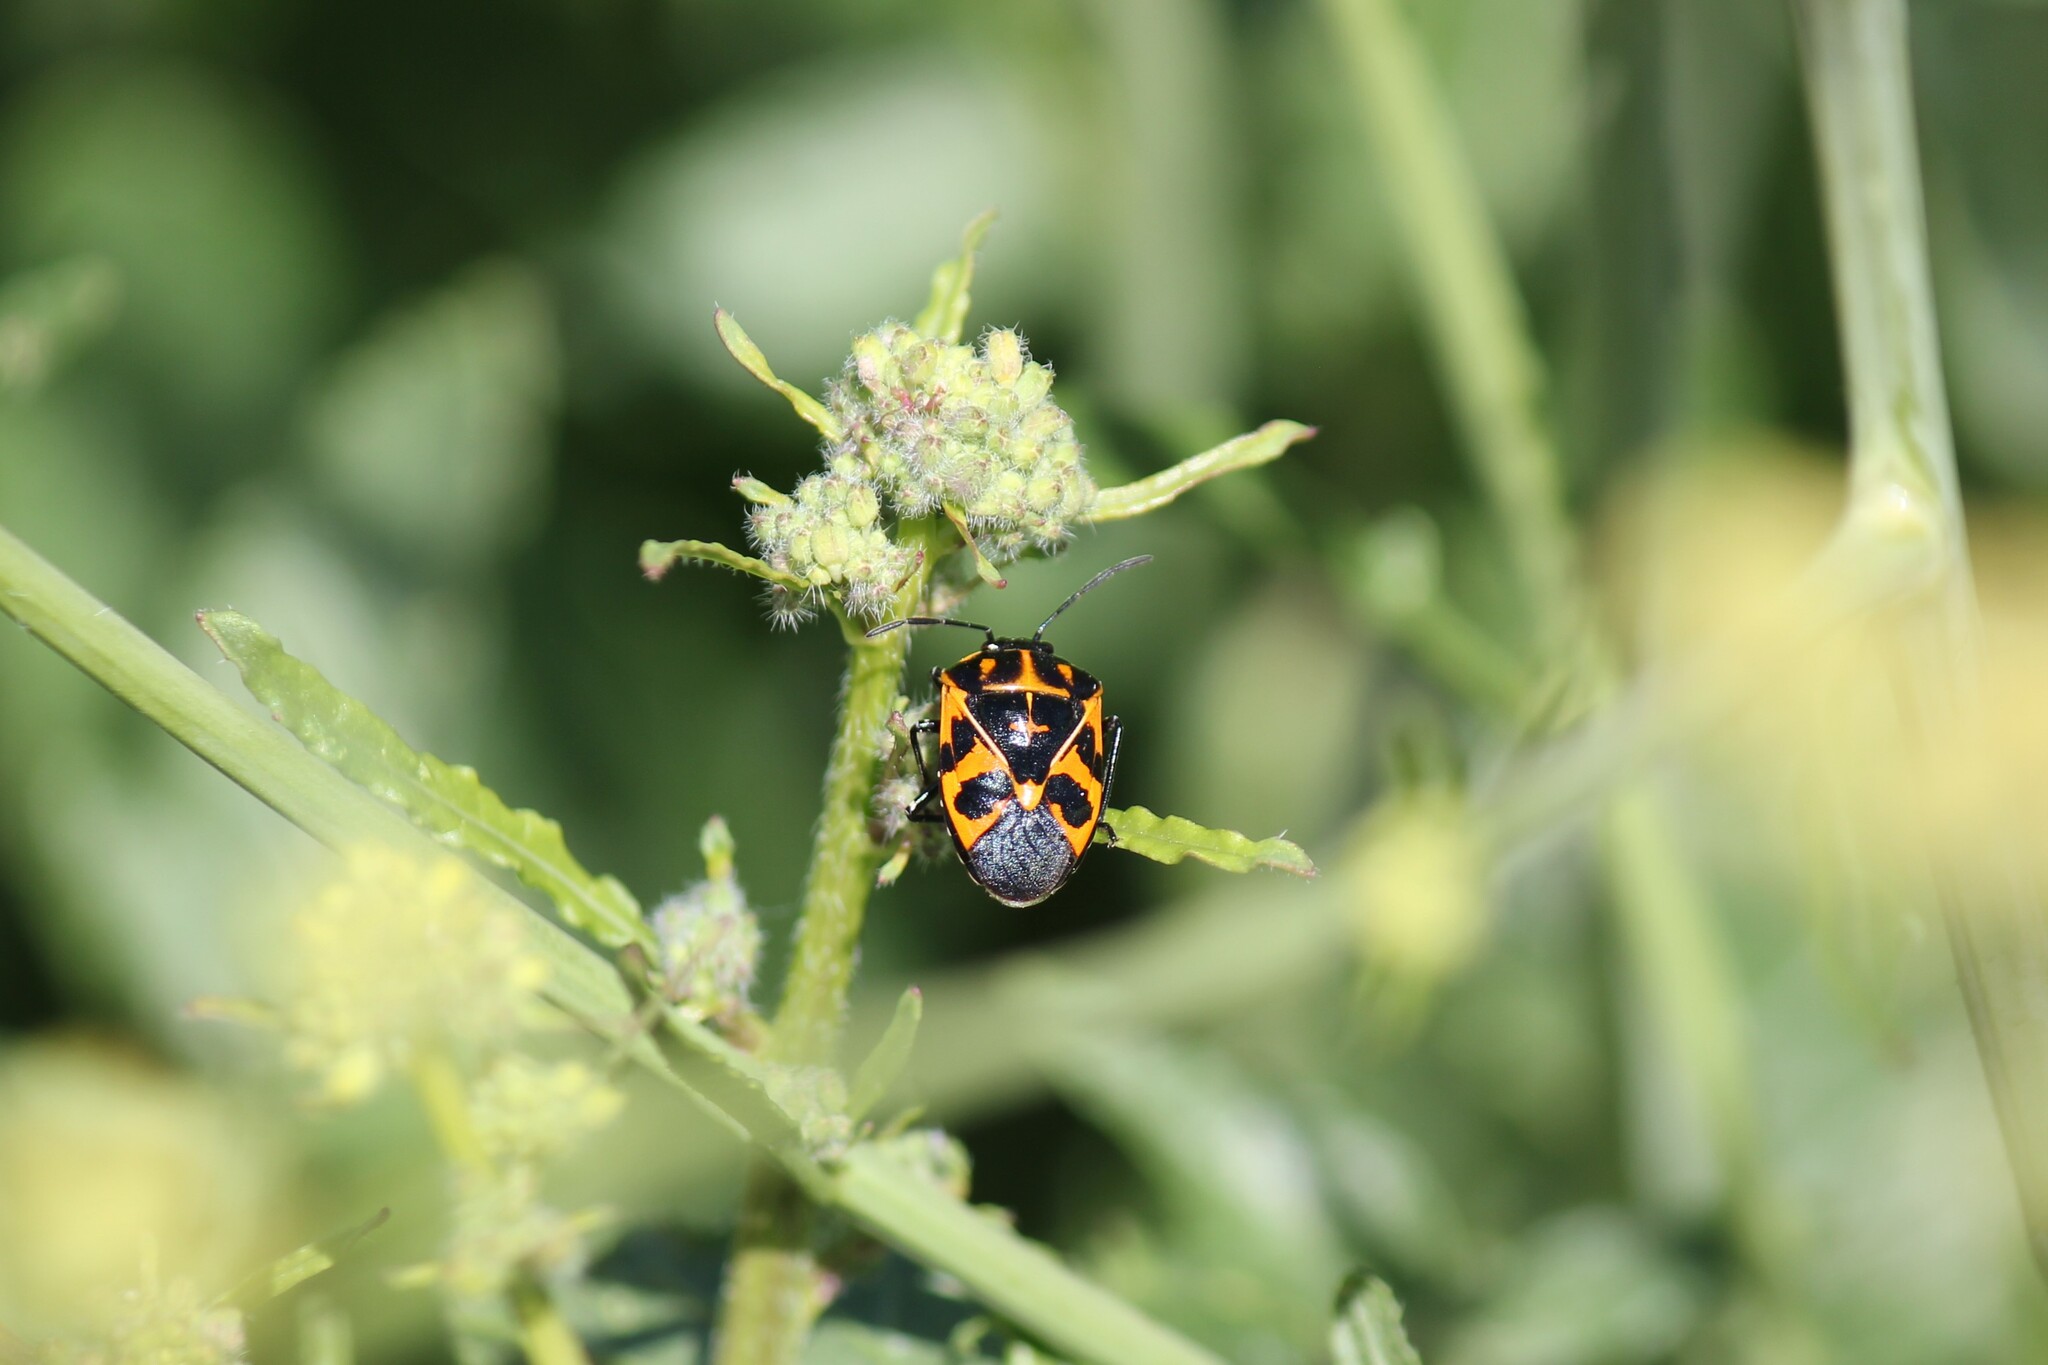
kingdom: Animalia
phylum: Arthropoda
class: Insecta
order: Hemiptera
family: Pentatomidae
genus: Murgantia
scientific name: Murgantia histrionica
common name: Harlequin bug
